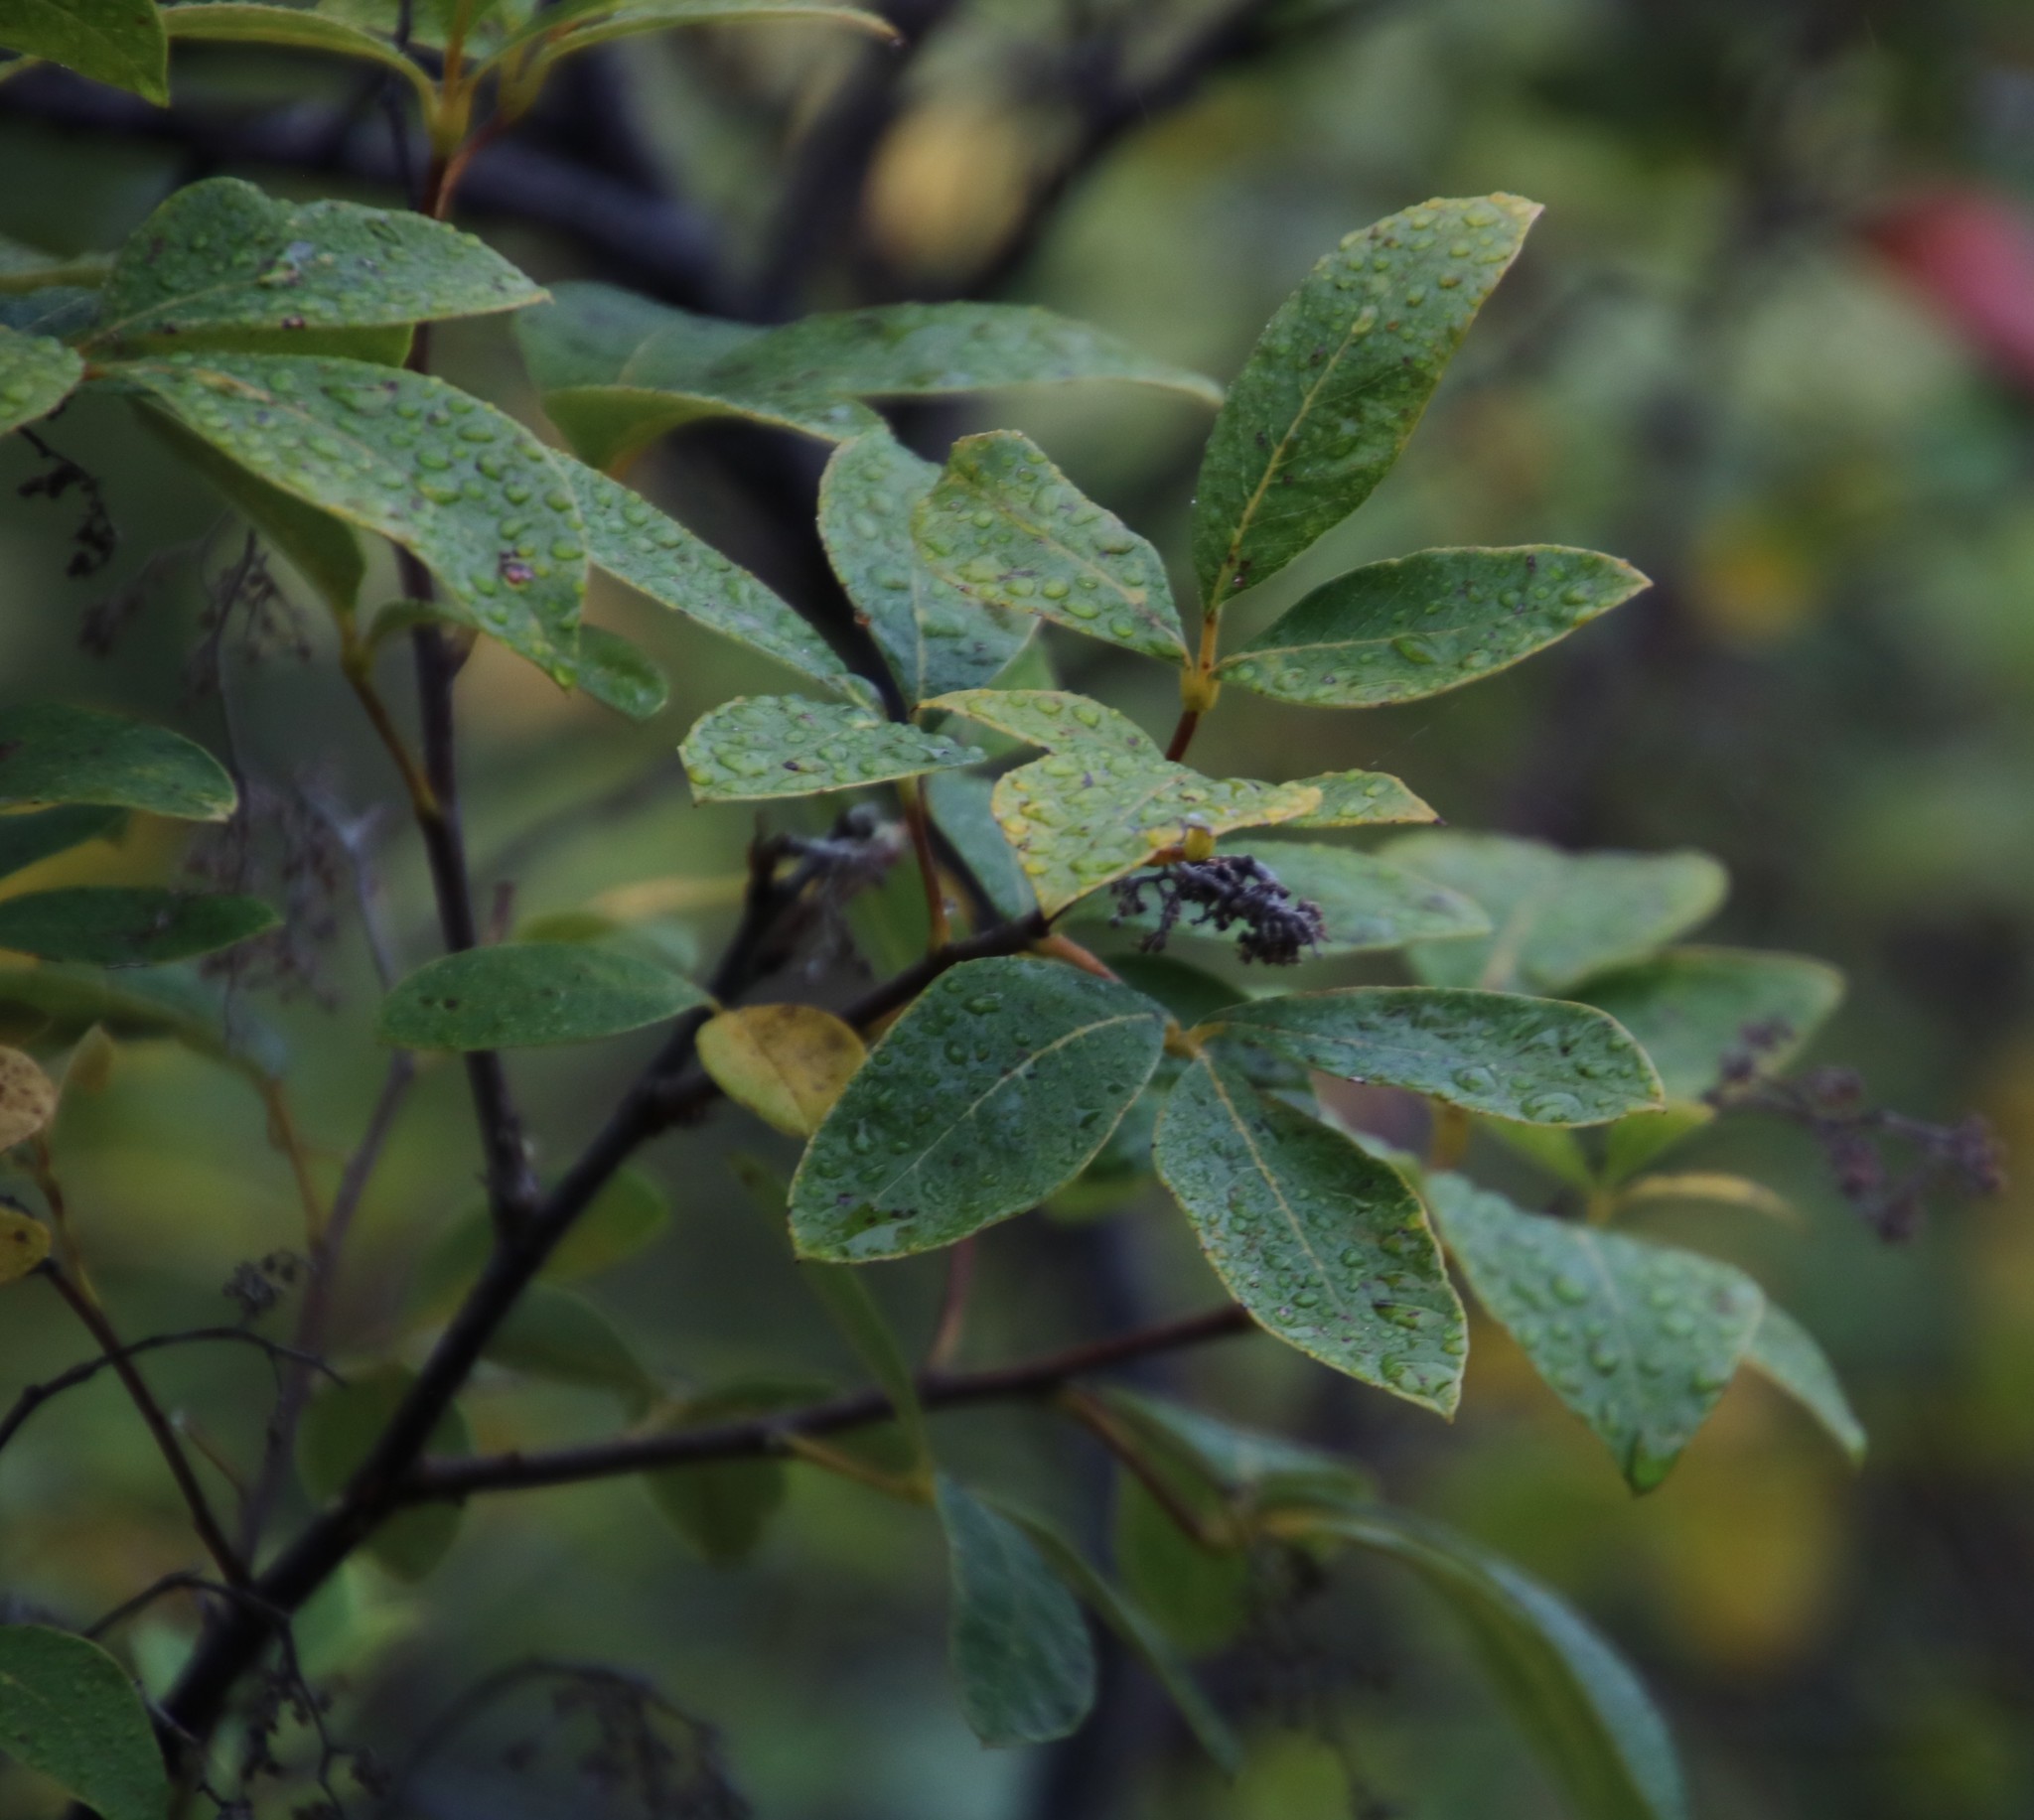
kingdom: Plantae
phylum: Tracheophyta
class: Magnoliopsida
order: Sapindales
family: Anacardiaceae
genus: Searsia
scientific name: Searsia tomentosa
